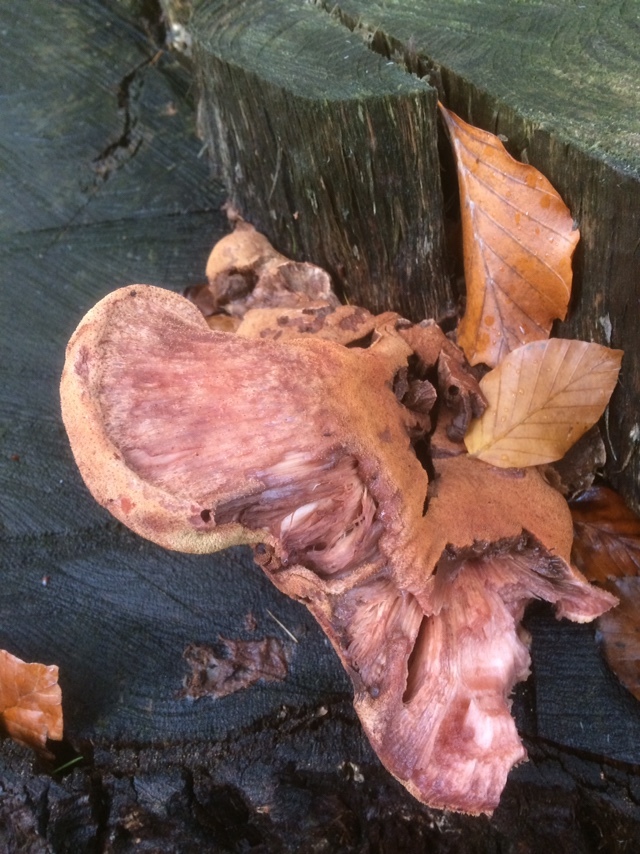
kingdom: Fungi
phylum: Basidiomycota
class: Agaricomycetes
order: Agaricales
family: Fistulinaceae
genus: Fistulina
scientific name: Fistulina hepatica
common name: Beef-steak fungus
